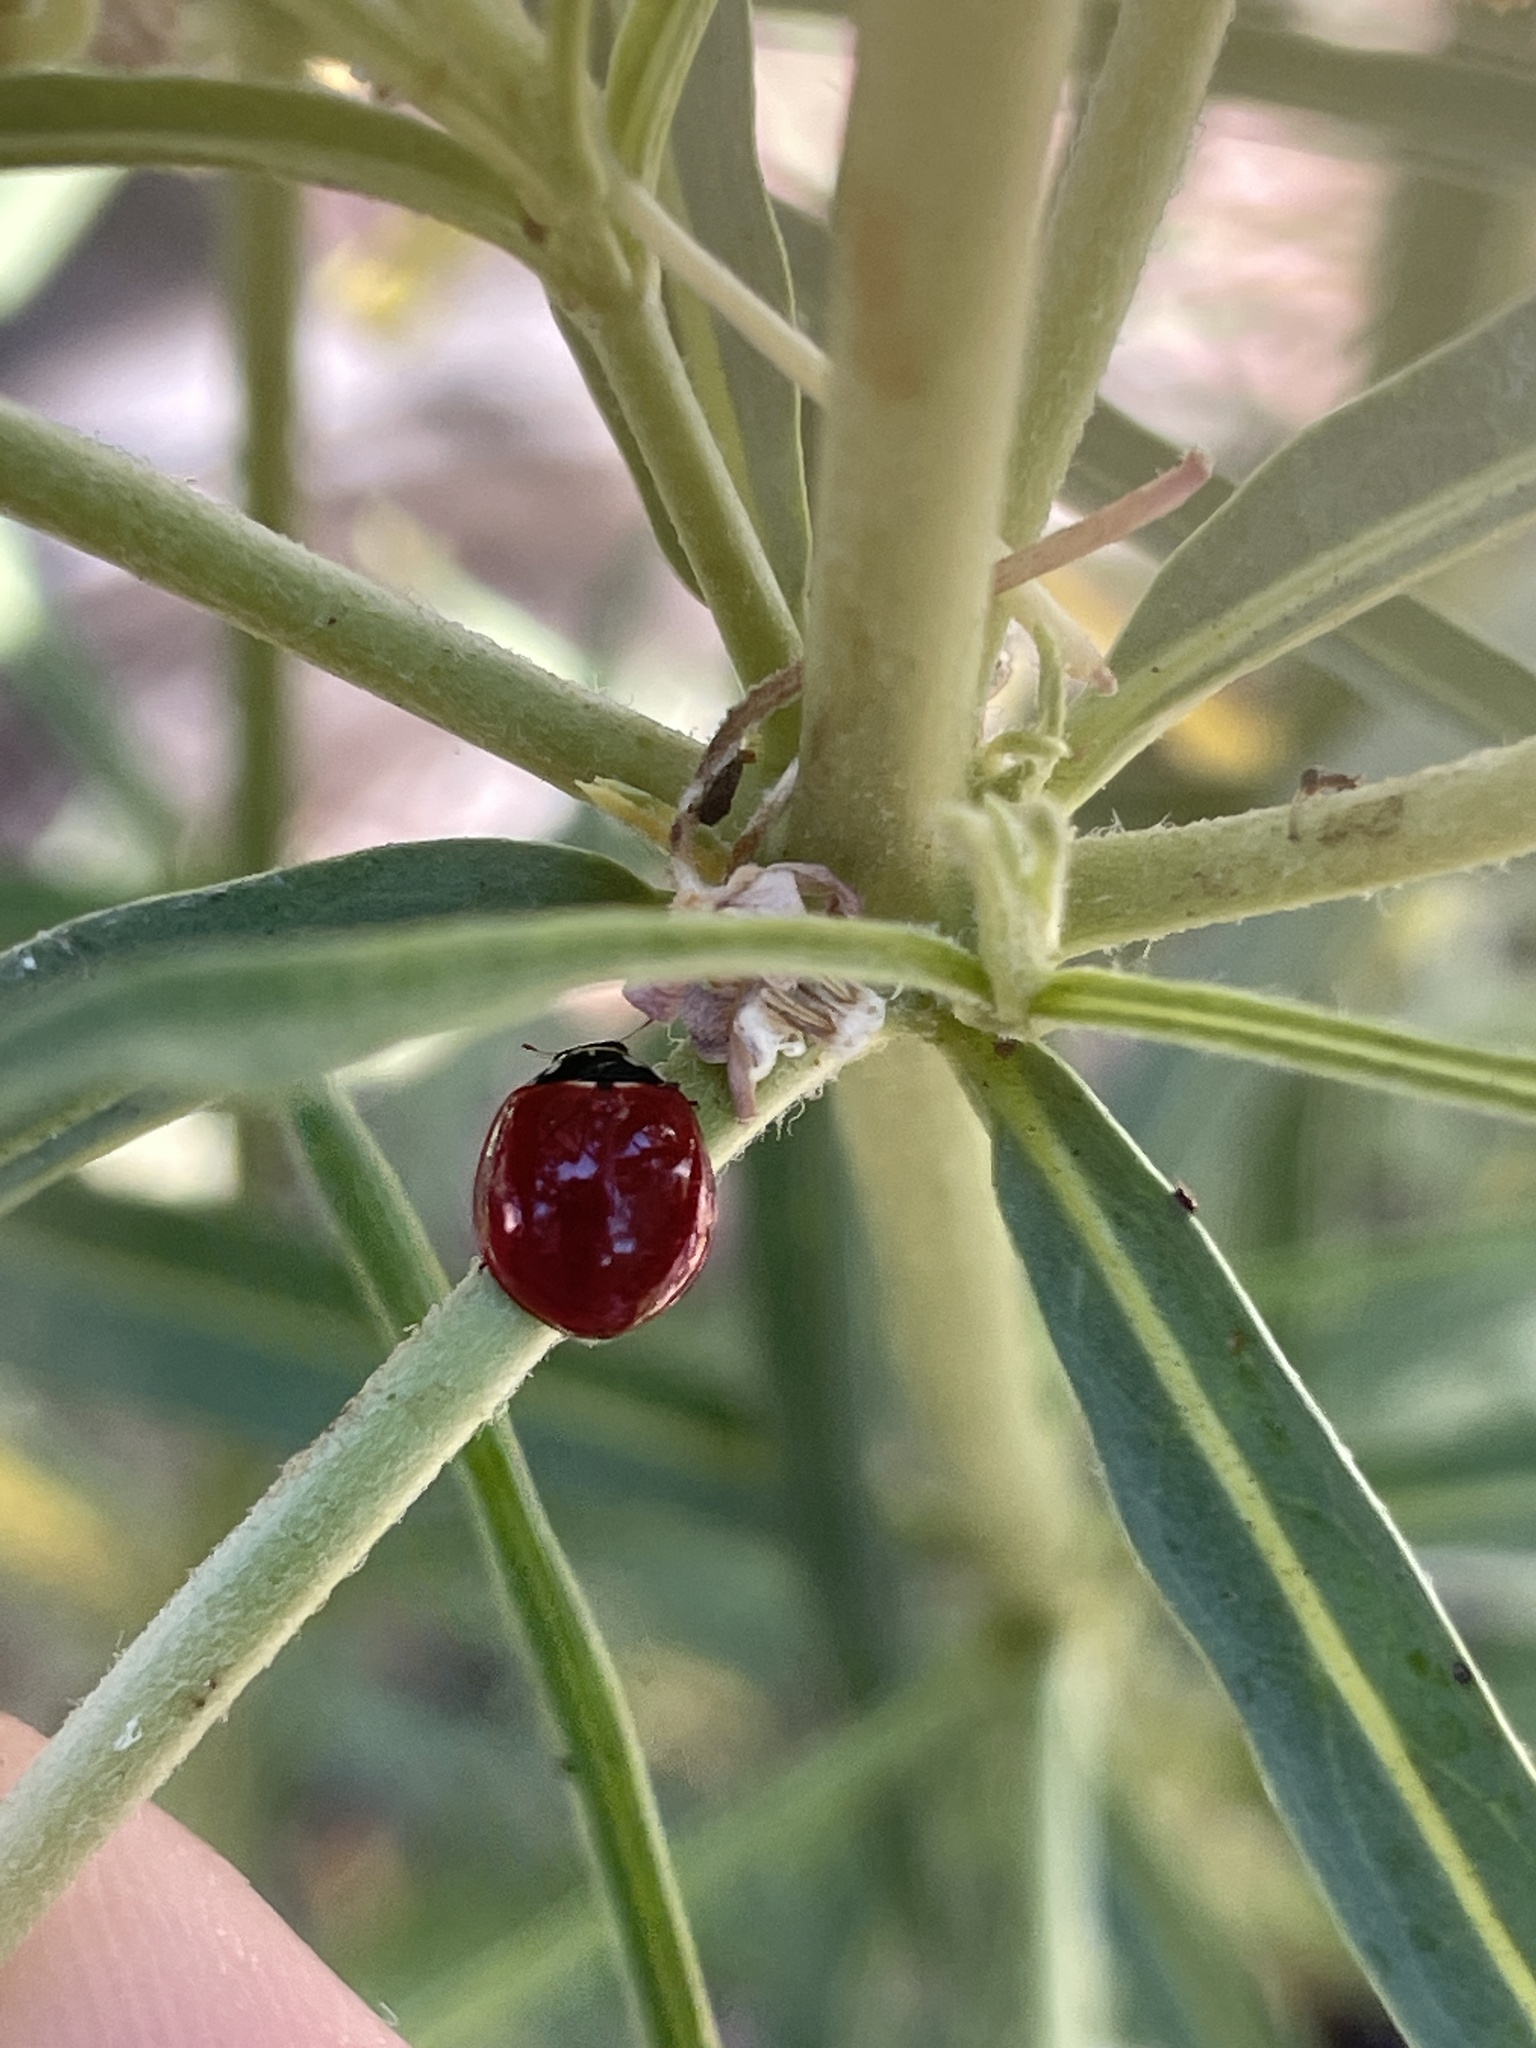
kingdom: Animalia
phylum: Arthropoda
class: Insecta
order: Coleoptera
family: Coccinellidae
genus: Cycloneda
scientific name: Cycloneda sanguinea
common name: Ladybird beetle
